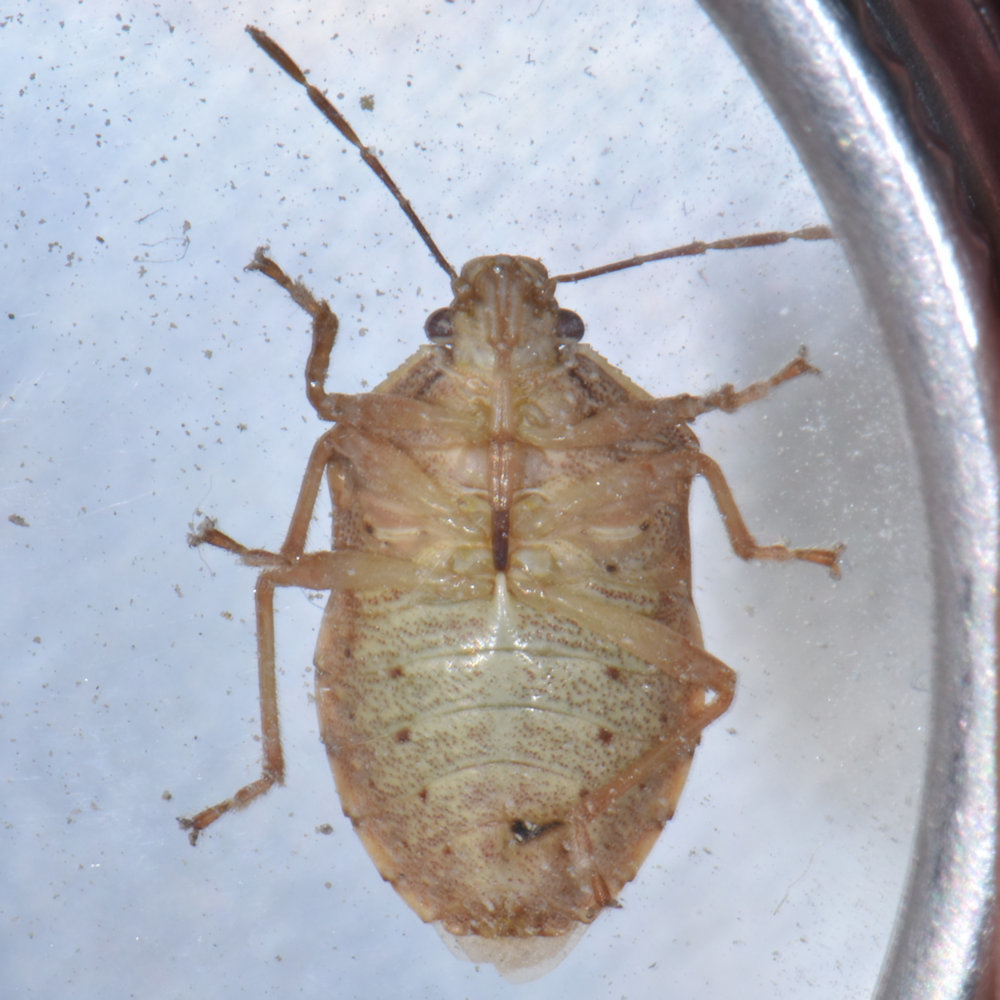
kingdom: Animalia
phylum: Arthropoda
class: Insecta
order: Hemiptera
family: Pentatomidae
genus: Podisus
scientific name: Podisus placidus
